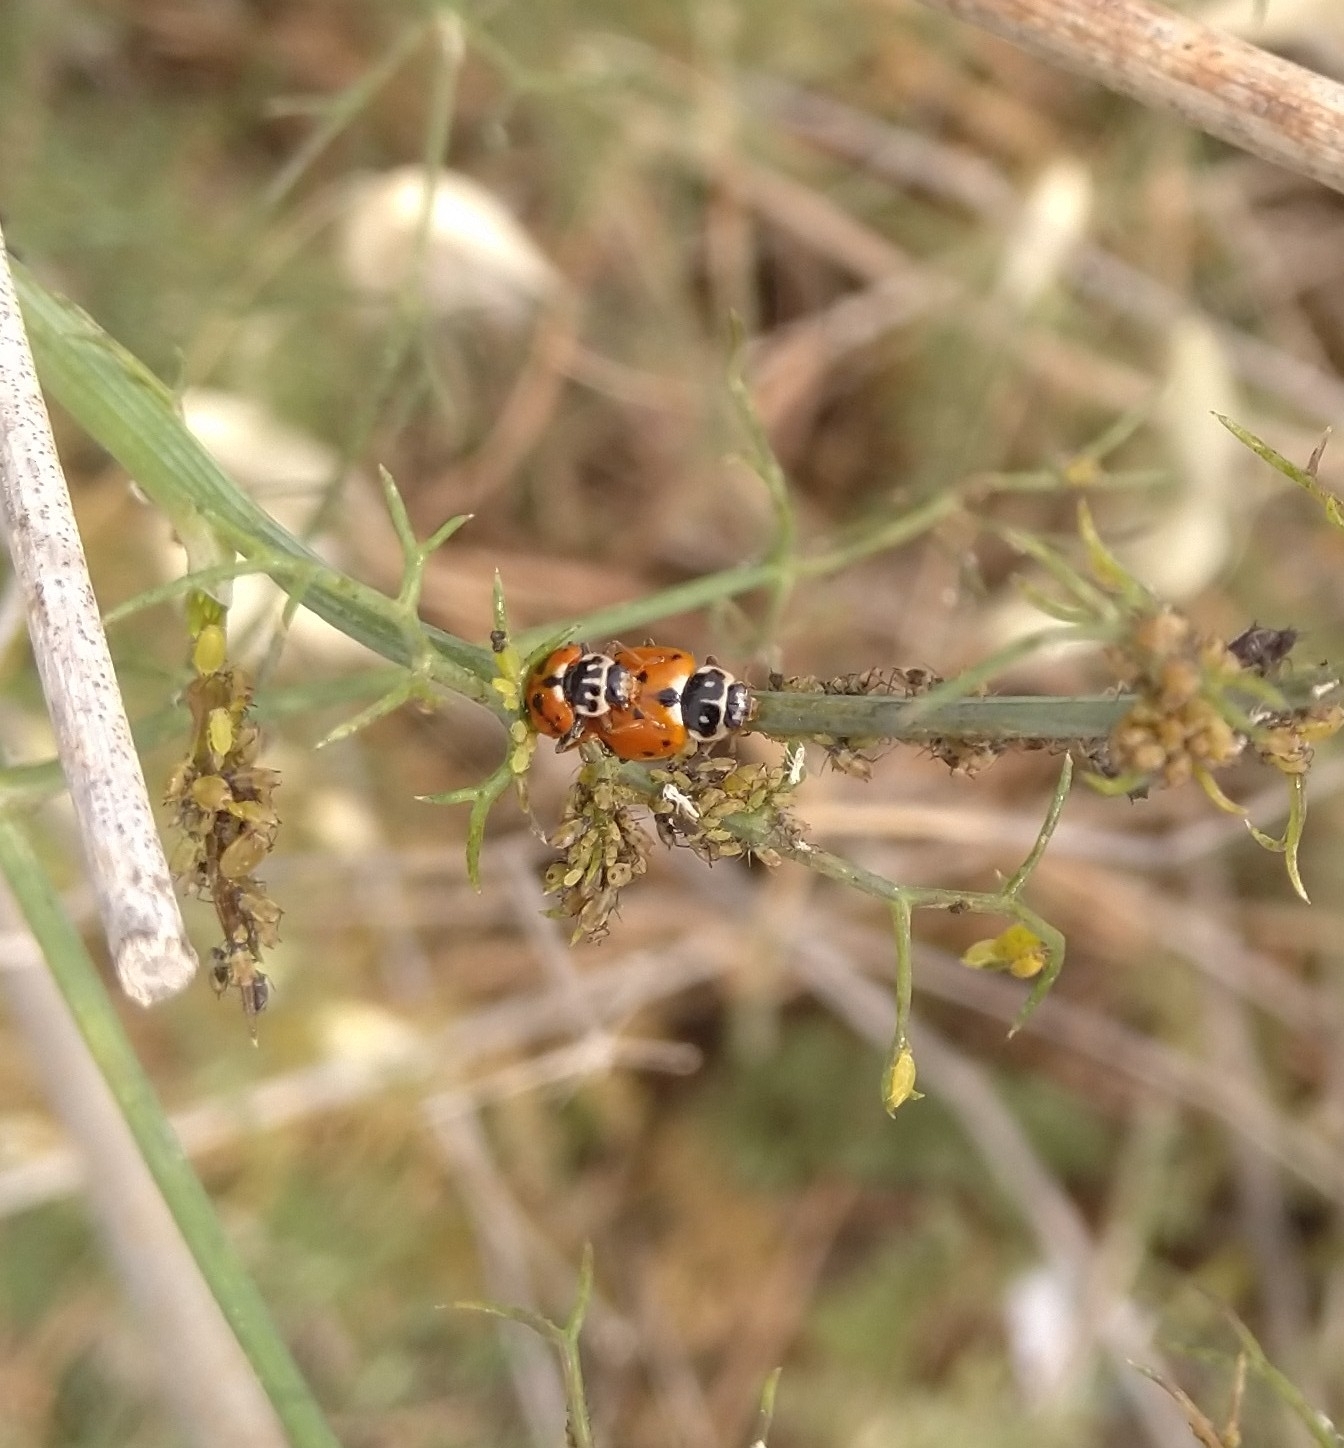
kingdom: Animalia
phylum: Arthropoda
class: Insecta
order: Coleoptera
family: Coccinellidae
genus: Hippodamia
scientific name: Hippodamia variegata
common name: Ladybird beetle
